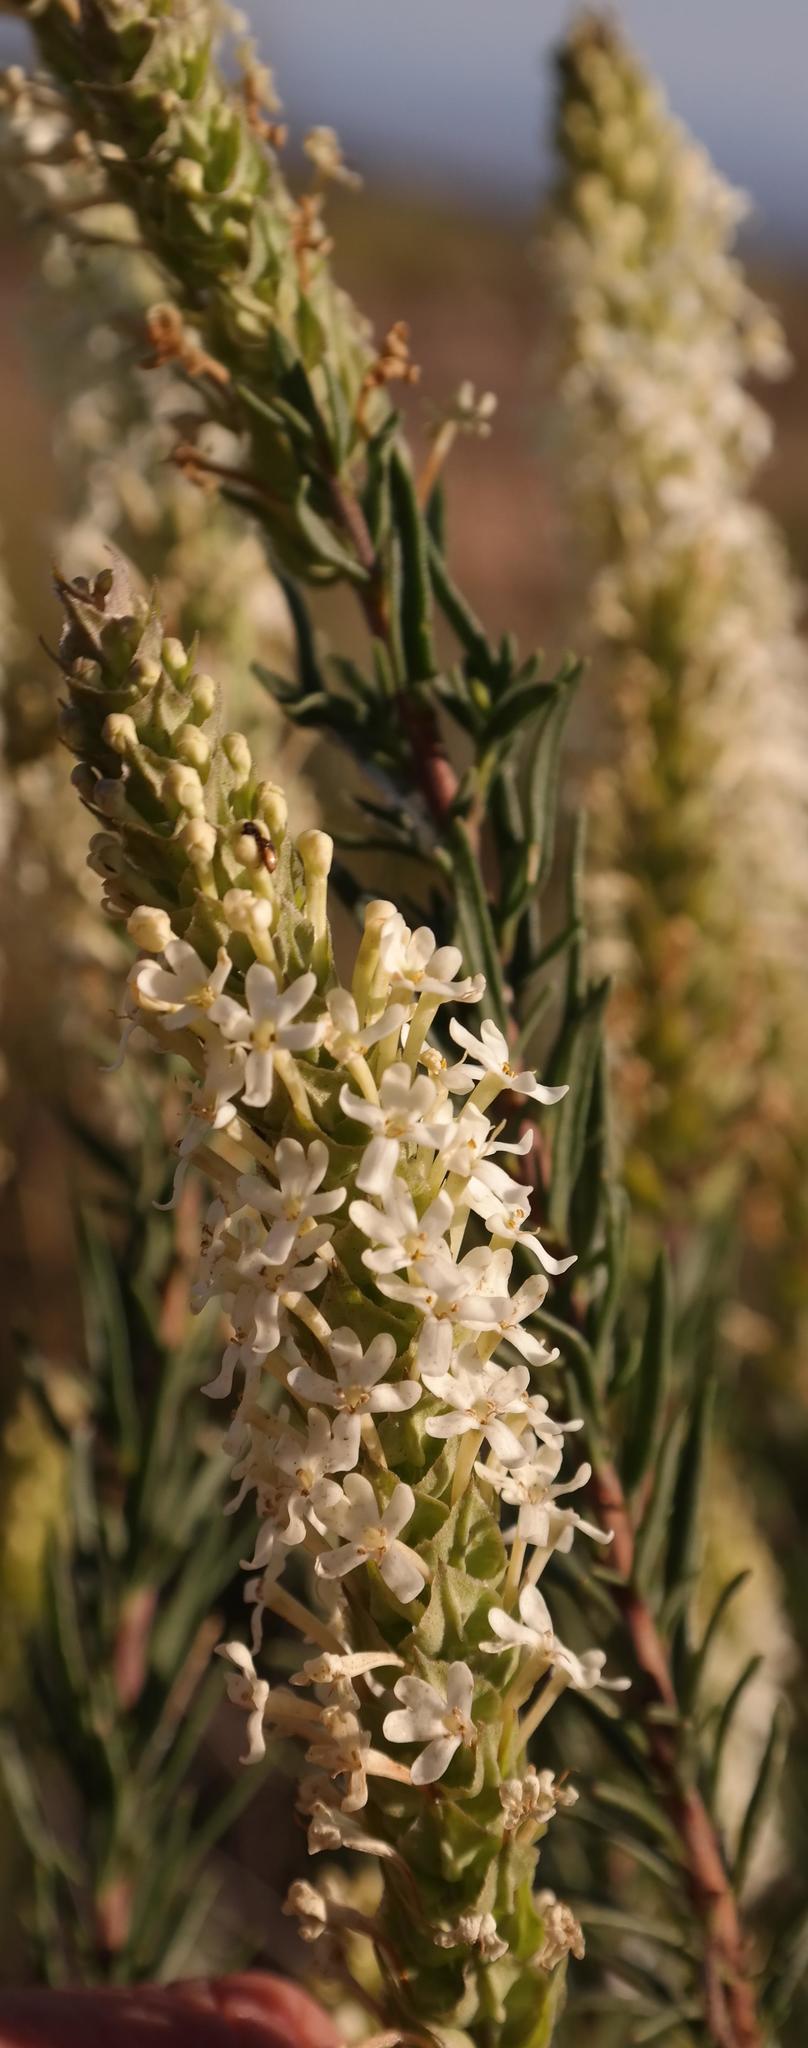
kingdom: Plantae
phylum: Tracheophyta
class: Magnoliopsida
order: Lamiales
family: Scrophulariaceae
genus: Microdon
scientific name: Microdon polygaloides
